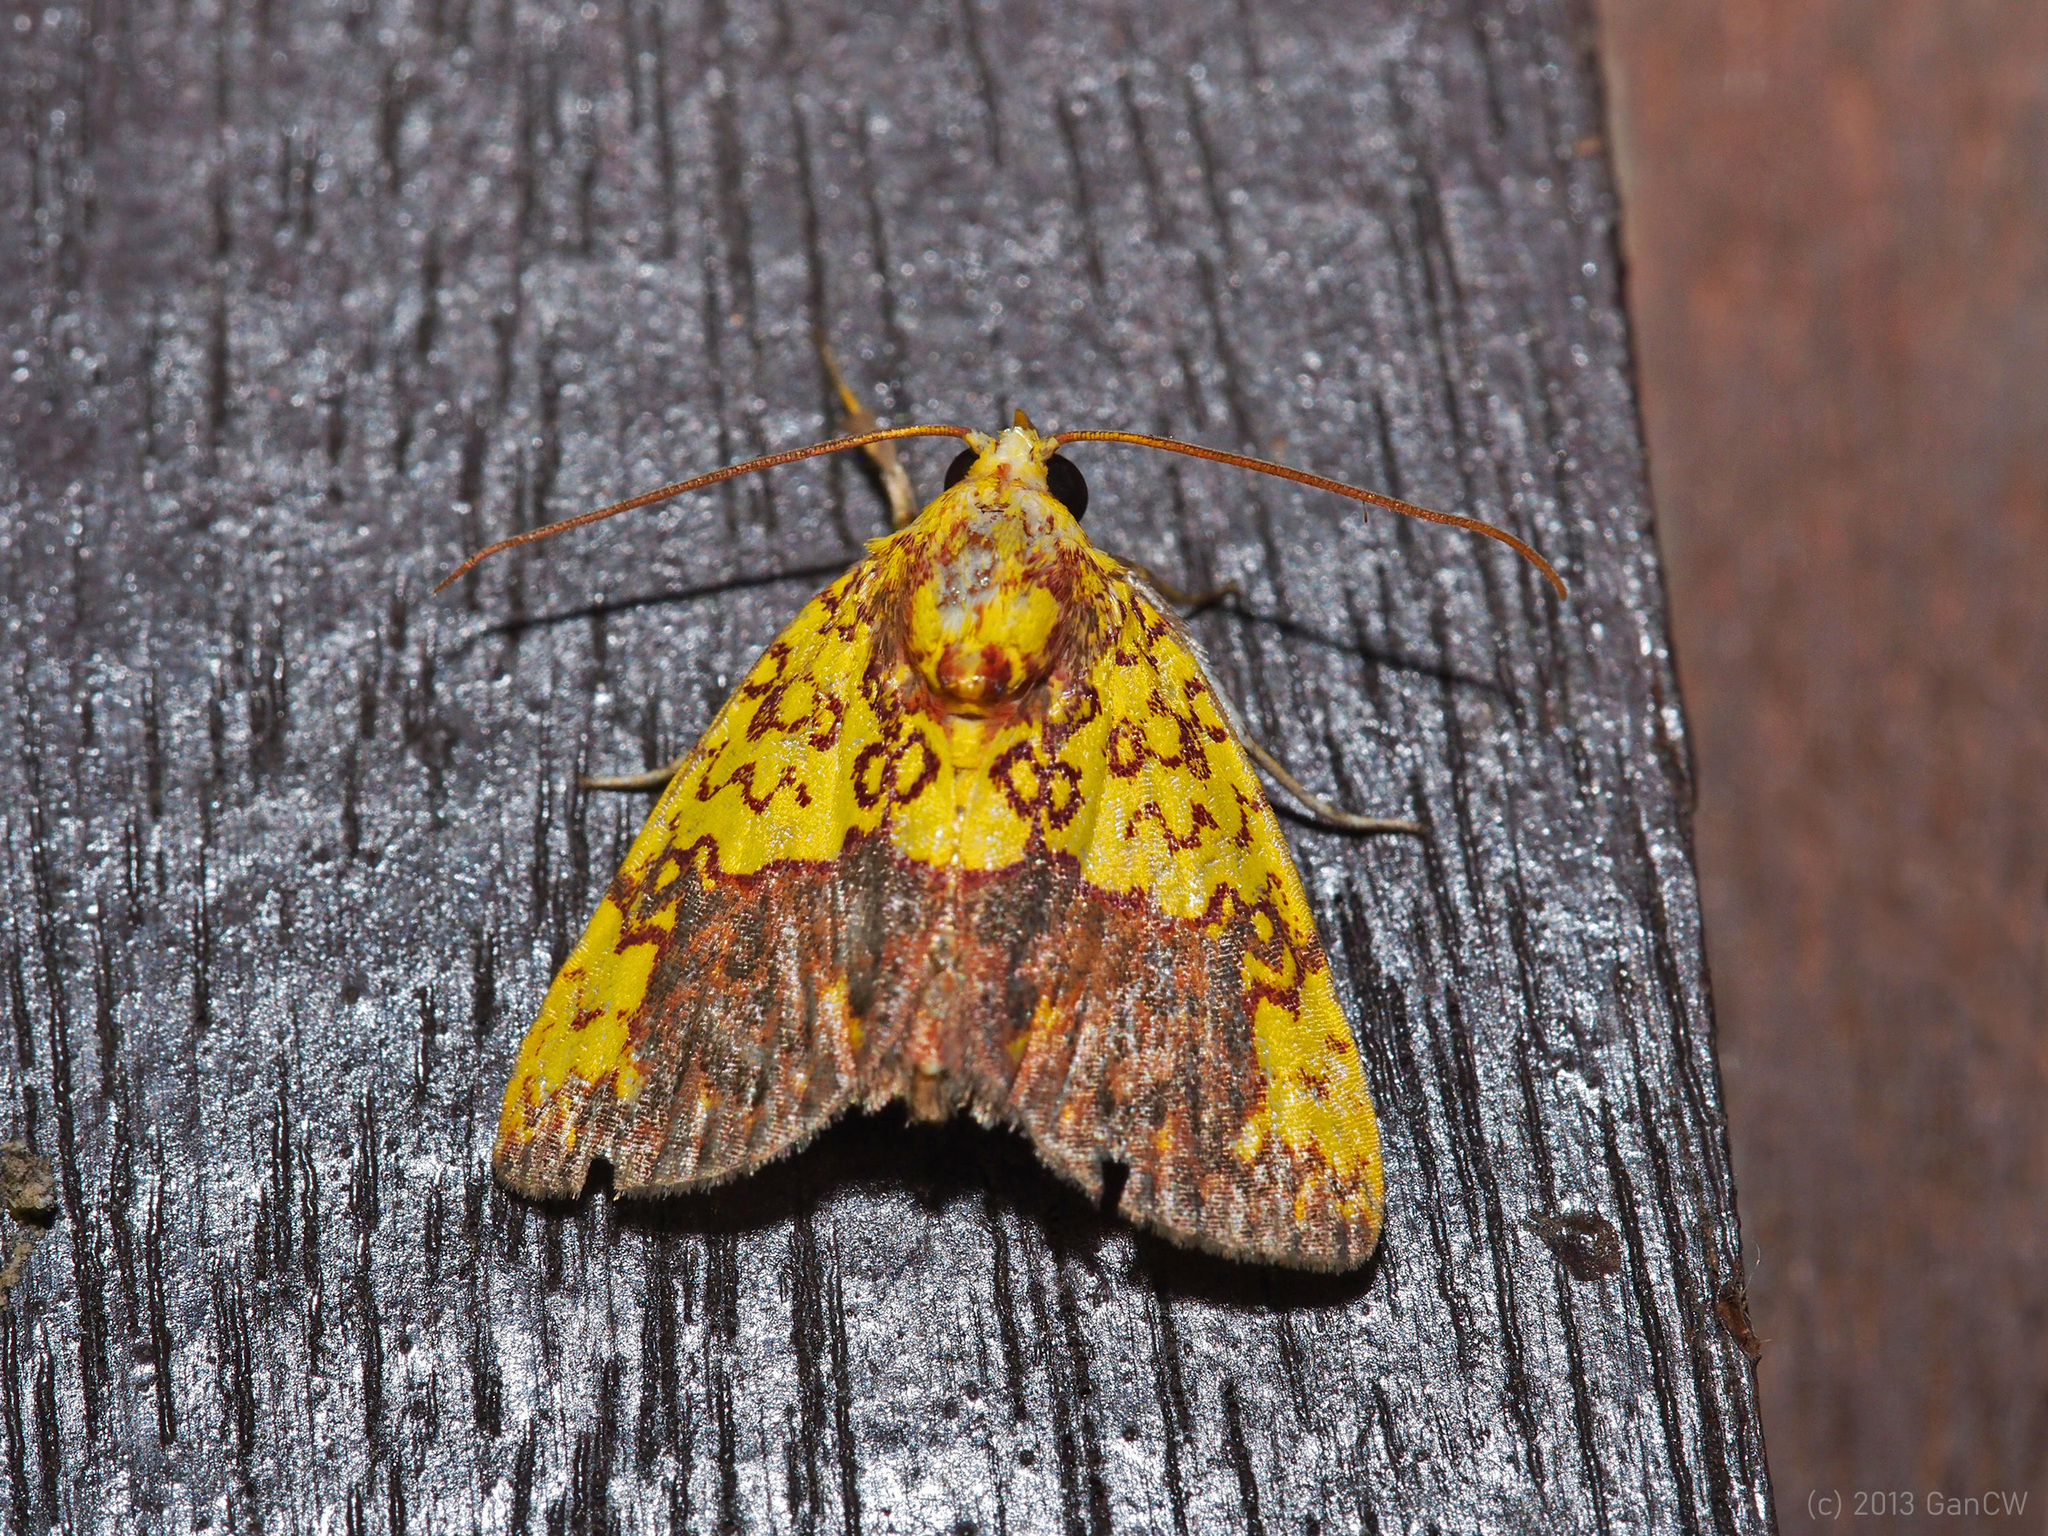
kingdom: Animalia
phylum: Arthropoda
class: Insecta
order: Lepidoptera
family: Nolidae
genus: Siglophora
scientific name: Siglophora bella
